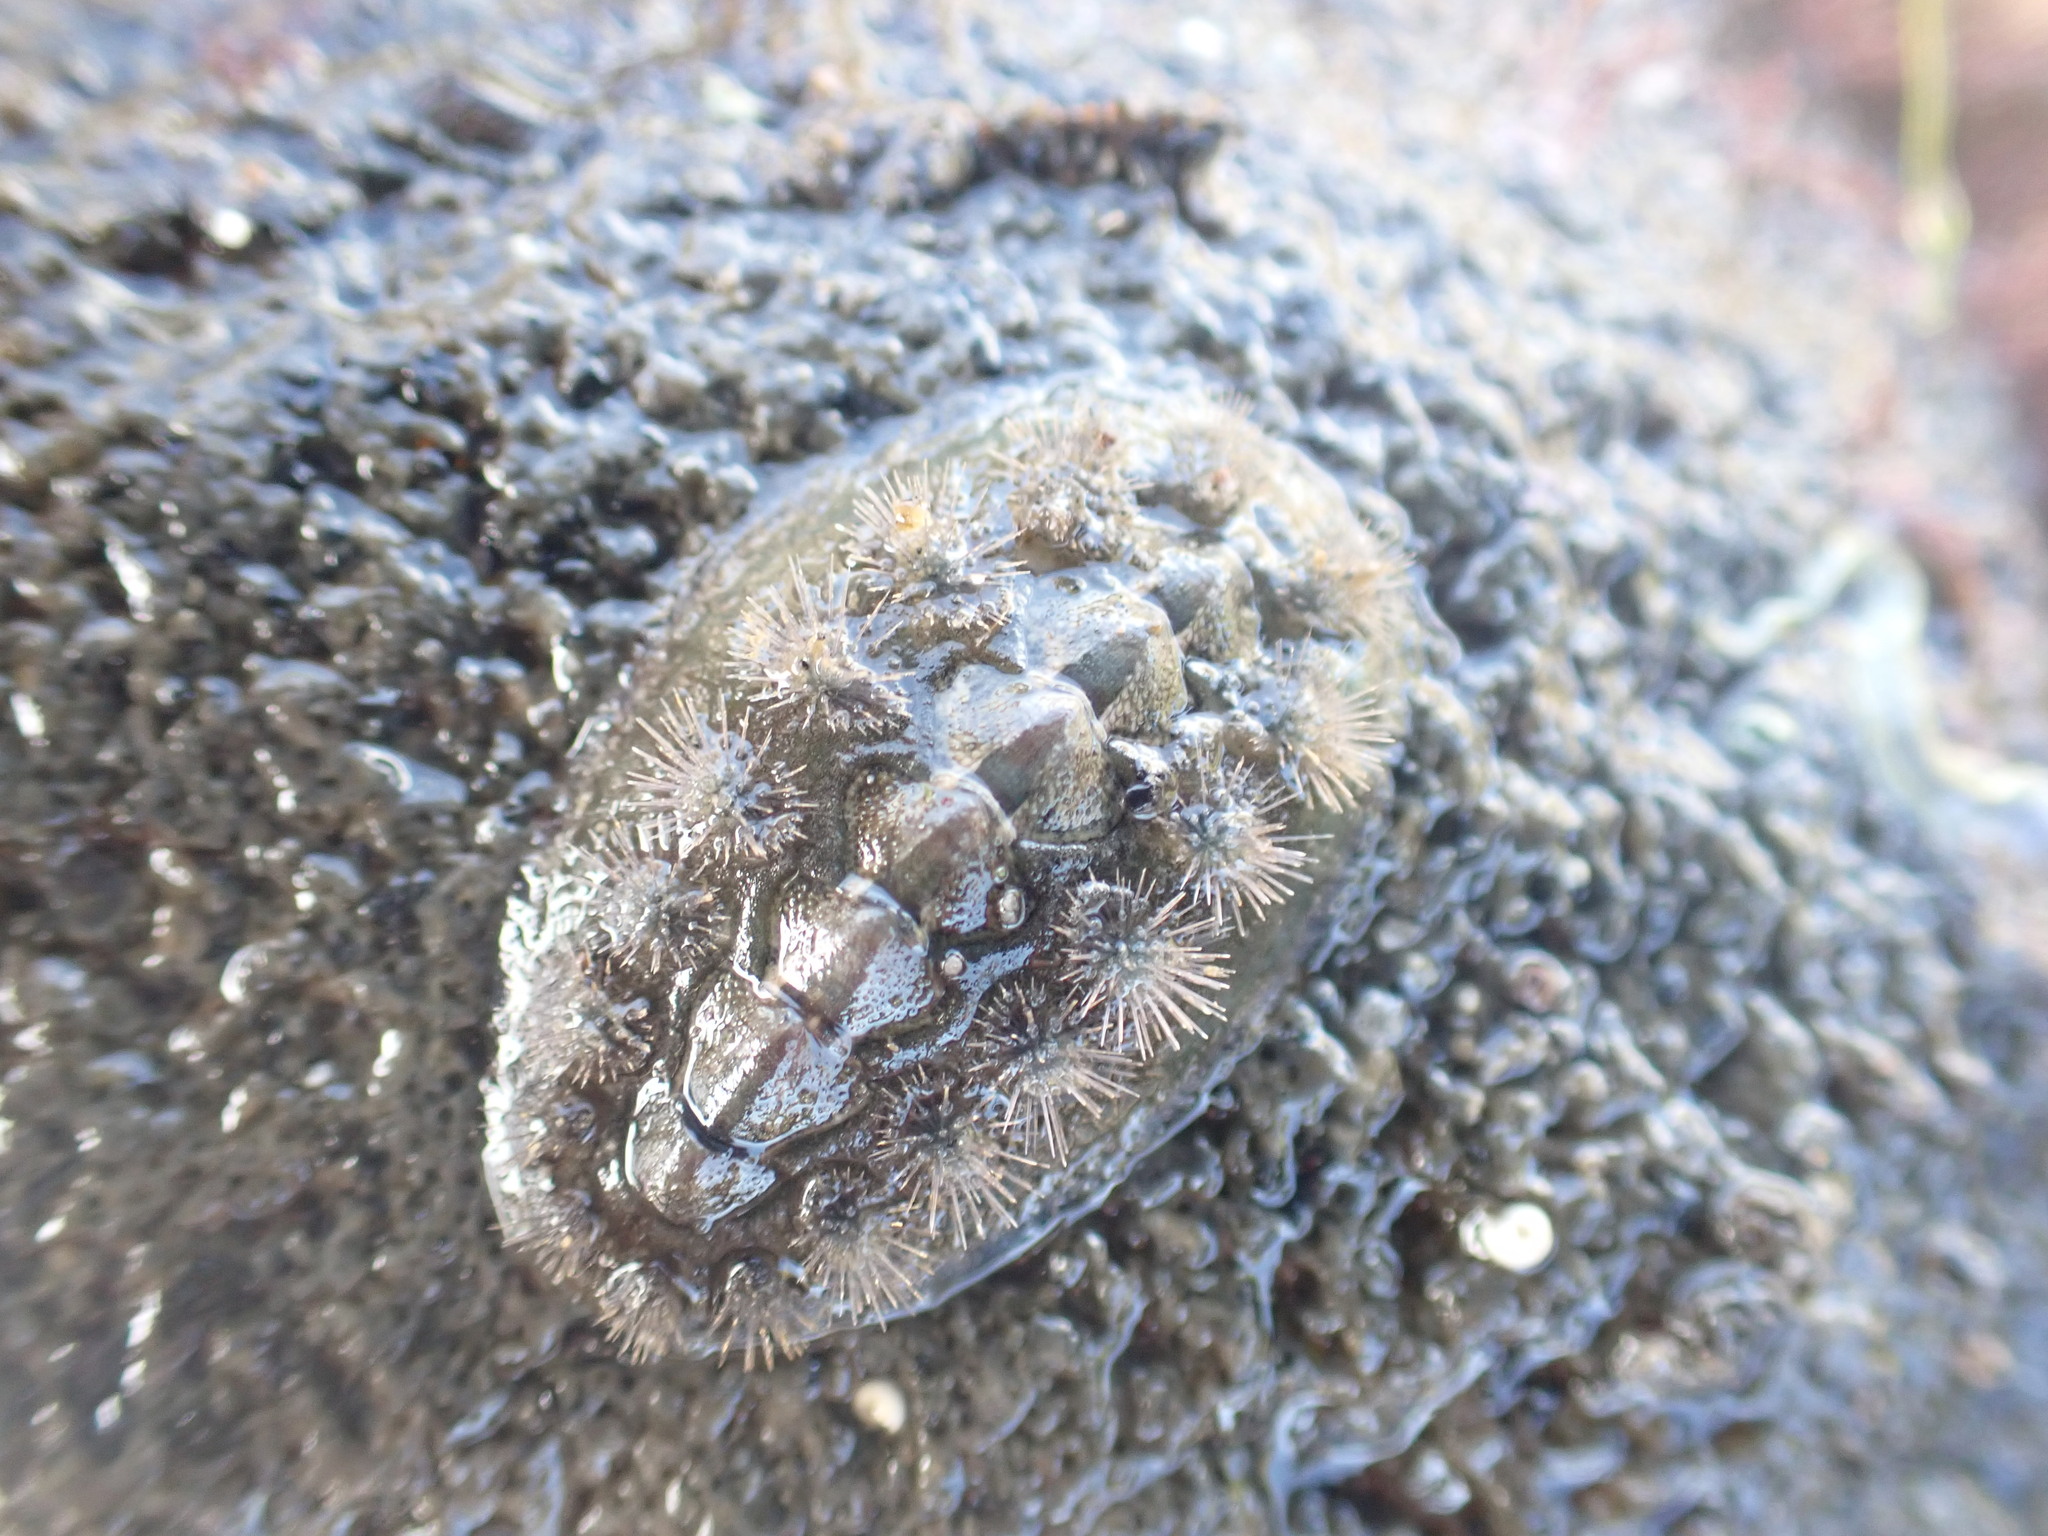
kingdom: Animalia
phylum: Mollusca
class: Polyplacophora
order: Chitonida
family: Acanthochitonidae
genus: Acanthochitona
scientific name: Acanthochitona zelandica
